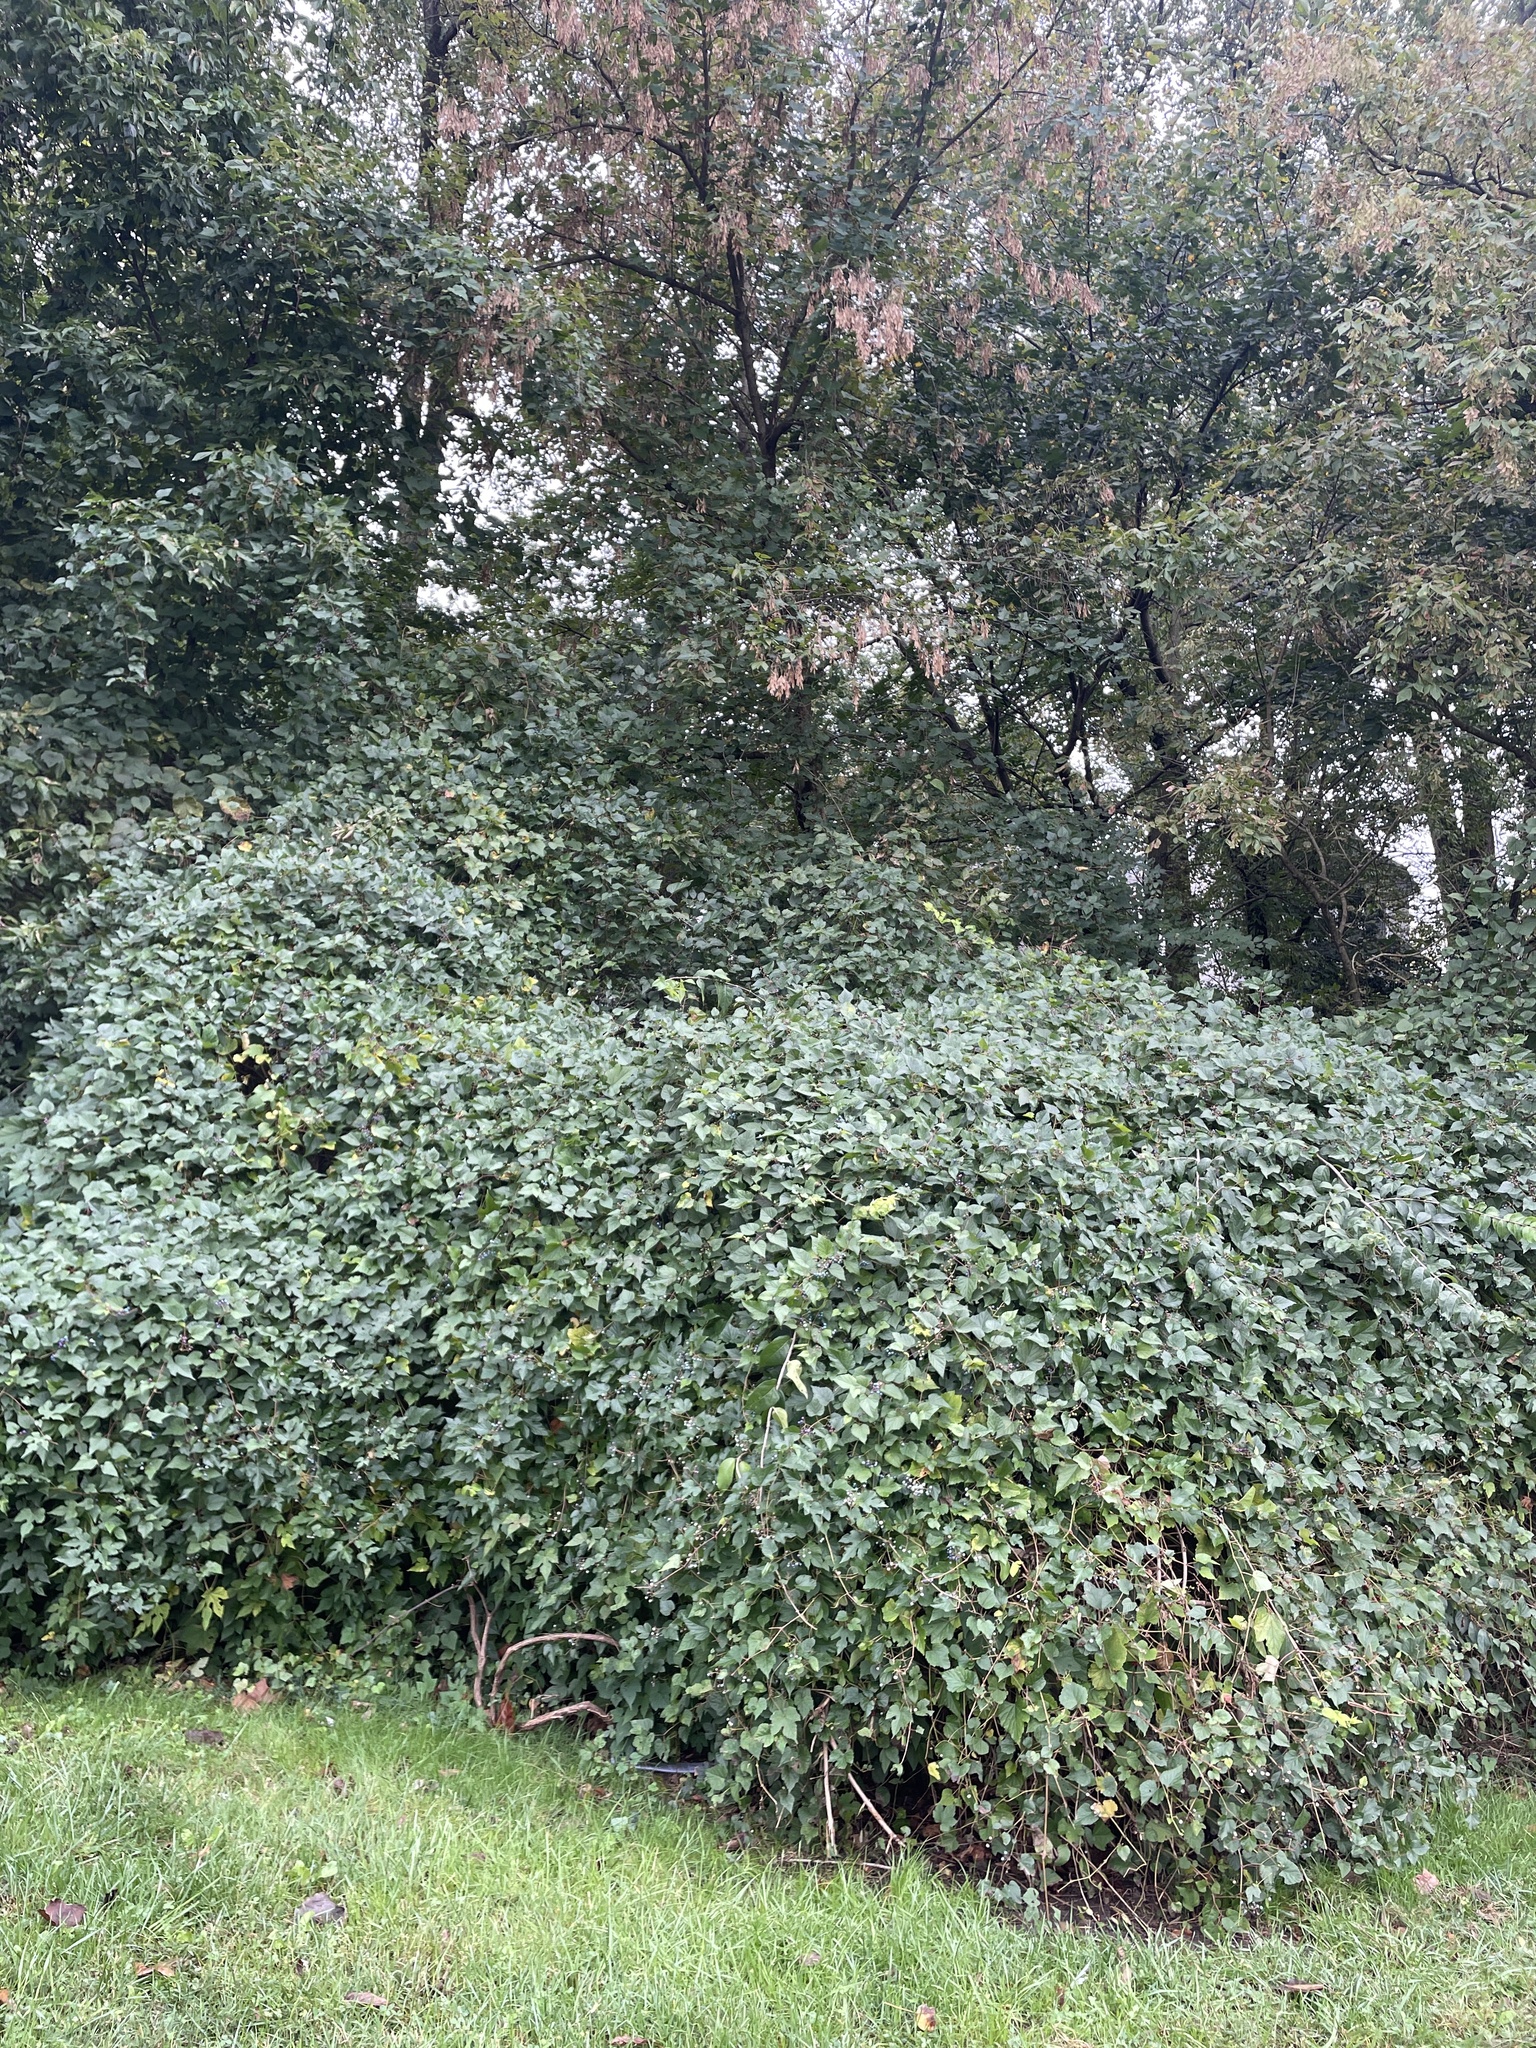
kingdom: Plantae
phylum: Tracheophyta
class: Magnoliopsida
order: Vitales
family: Vitaceae
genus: Ampelopsis
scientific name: Ampelopsis glandulosa
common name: Amur peppervine
